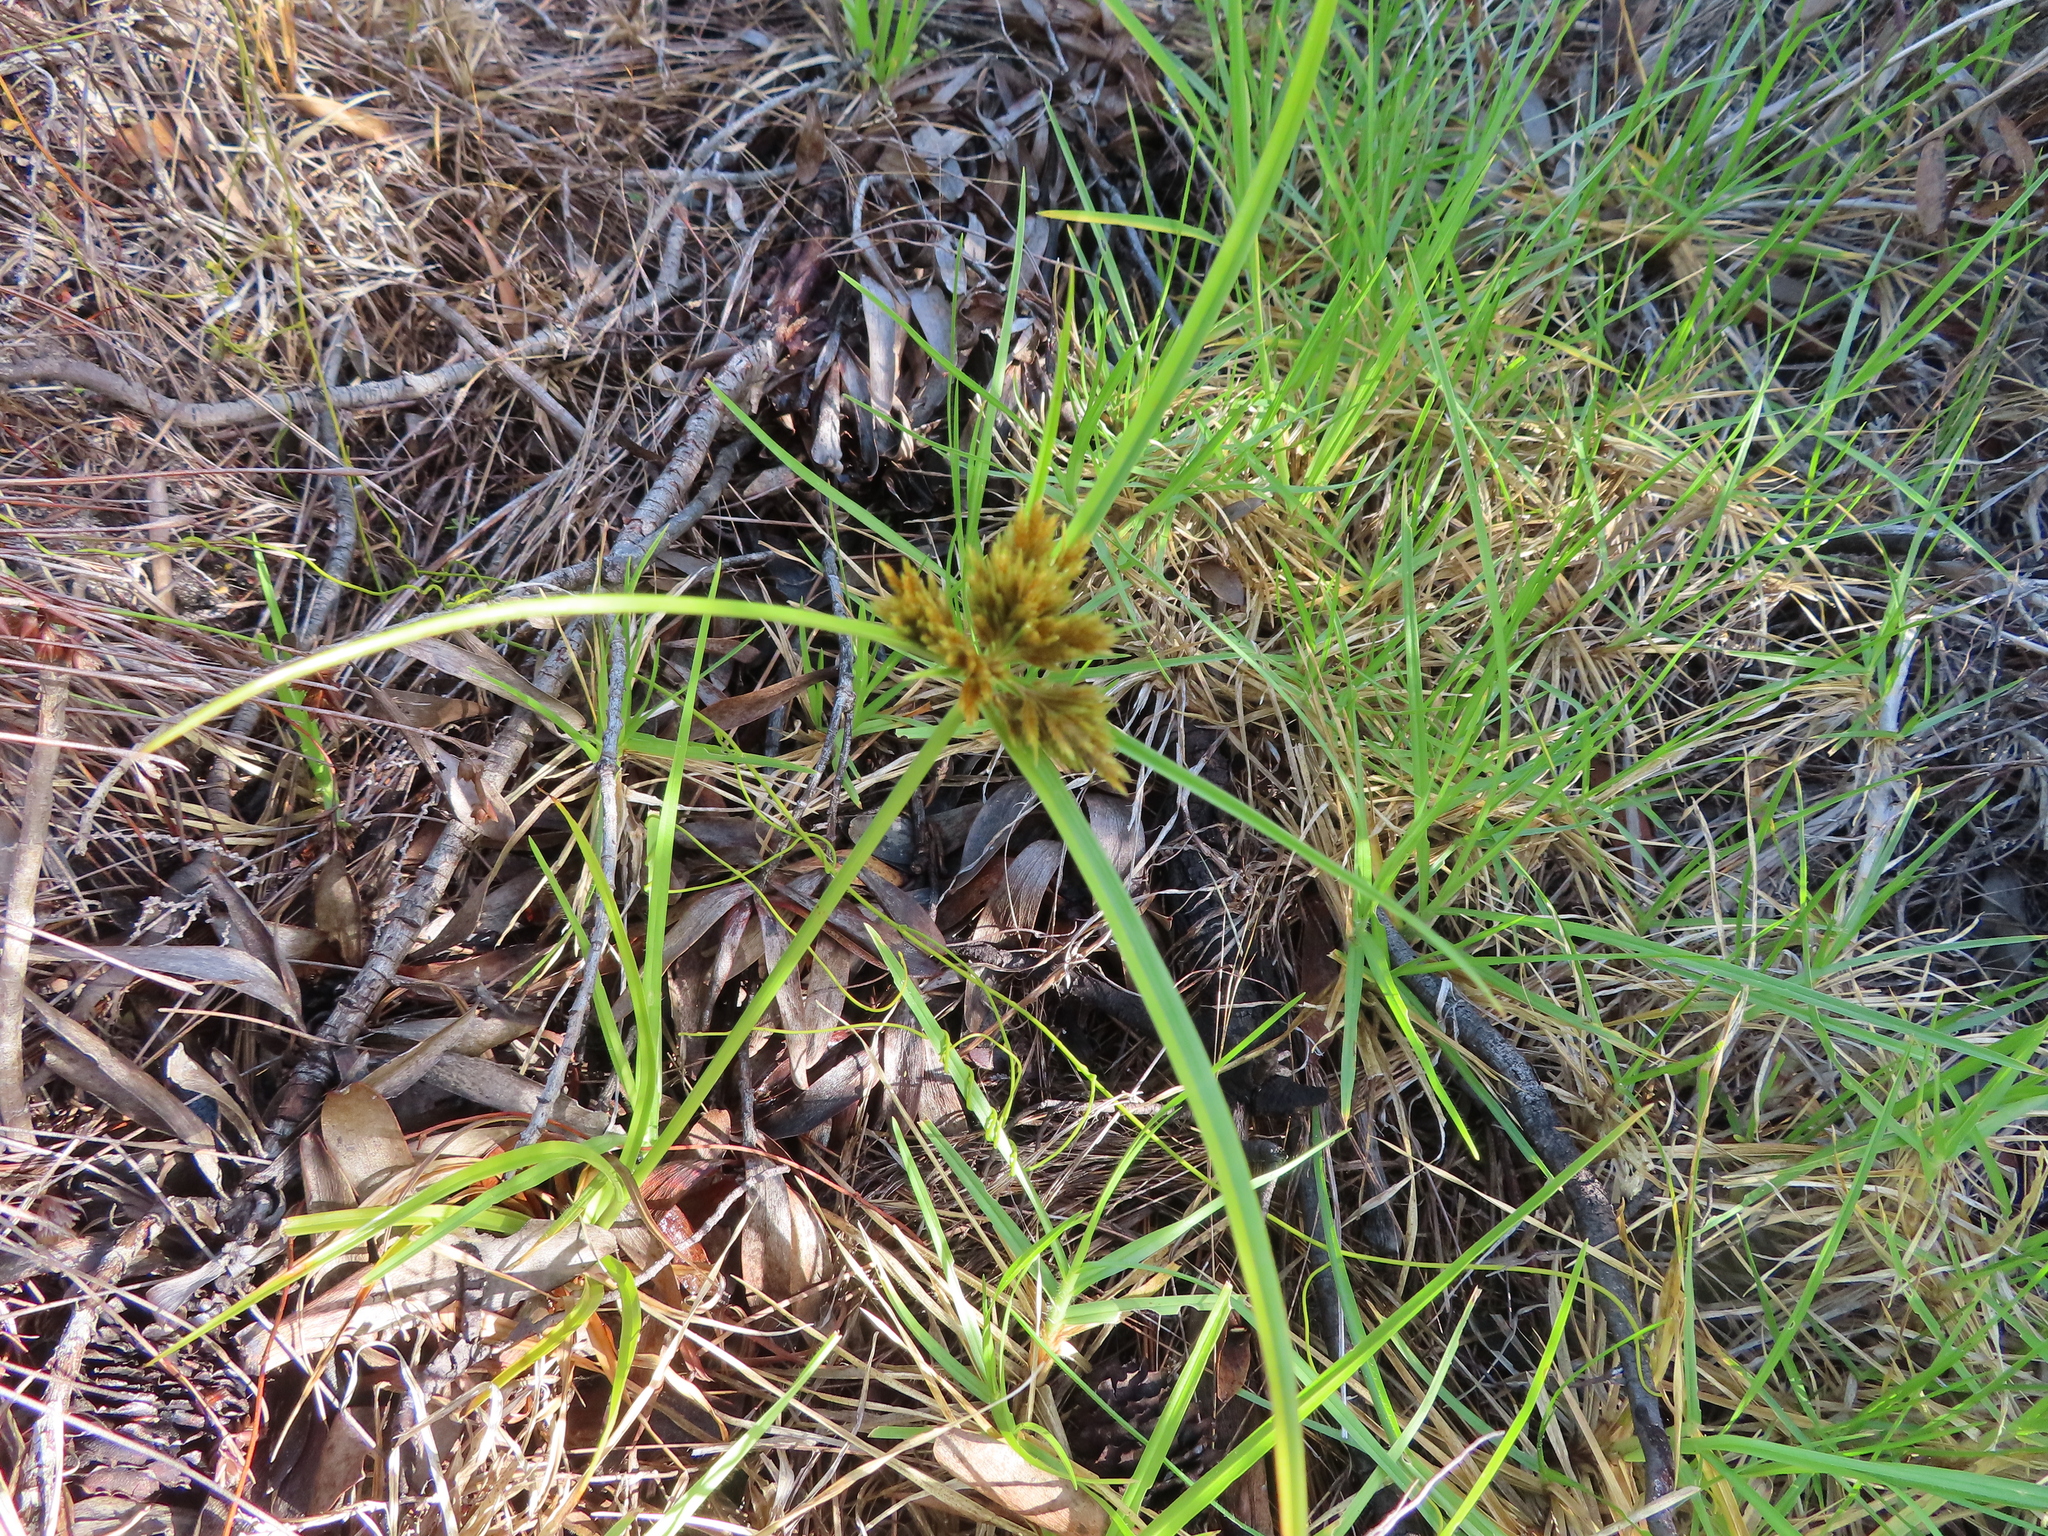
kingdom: Plantae
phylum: Tracheophyta
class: Liliopsida
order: Poales
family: Cyperaceae
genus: Cyperus
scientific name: Cyperus polystachyos
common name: Bunchy flat sedge
